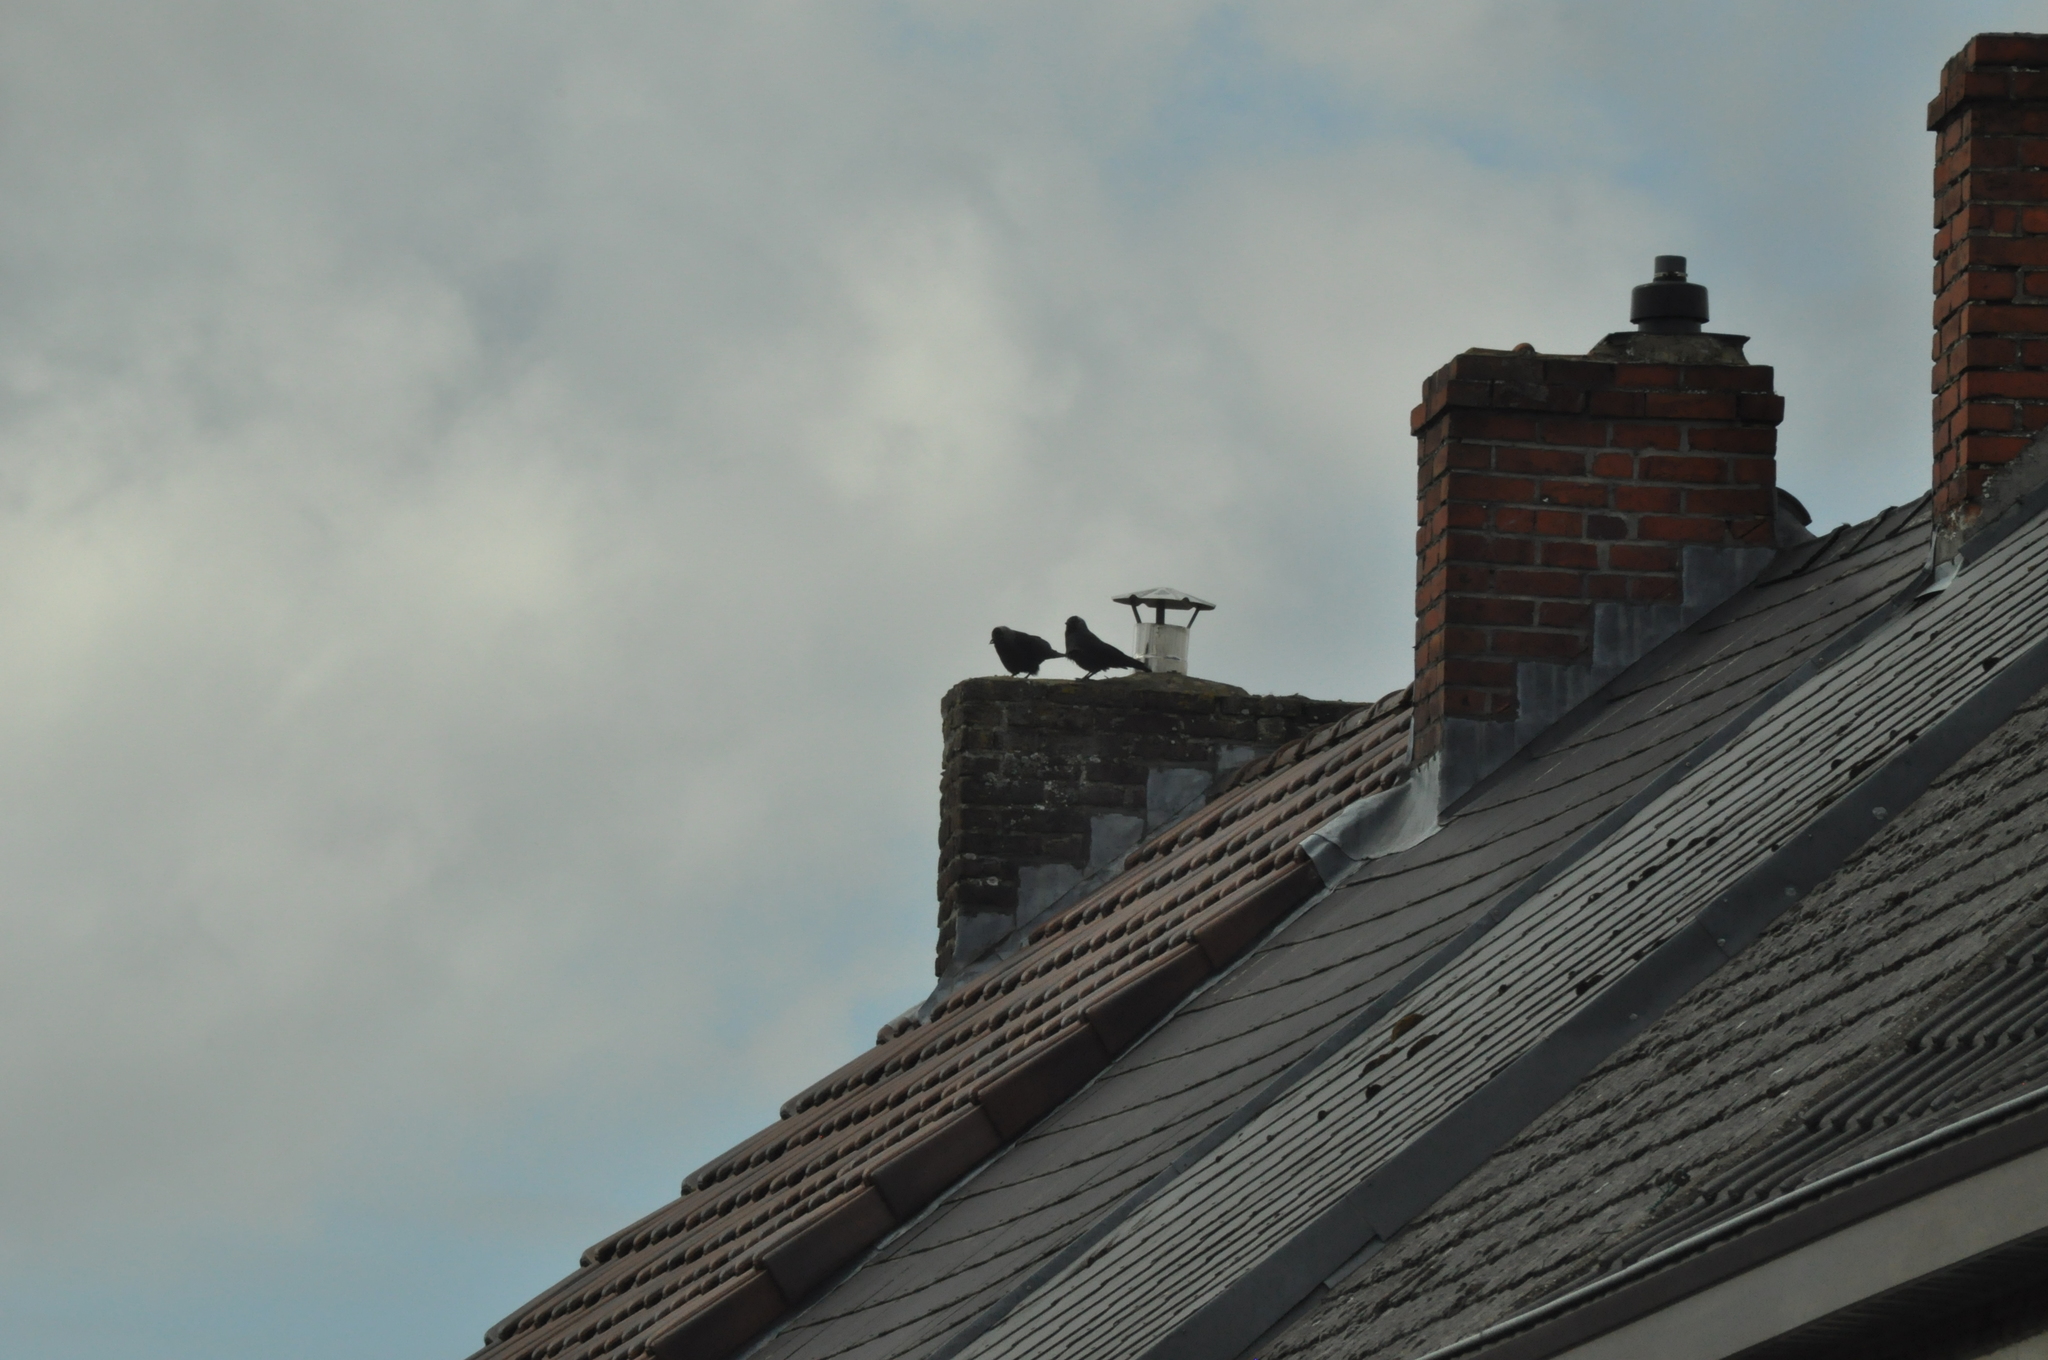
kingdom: Animalia
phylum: Chordata
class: Aves
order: Passeriformes
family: Corvidae
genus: Coloeus
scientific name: Coloeus monedula
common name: Western jackdaw
